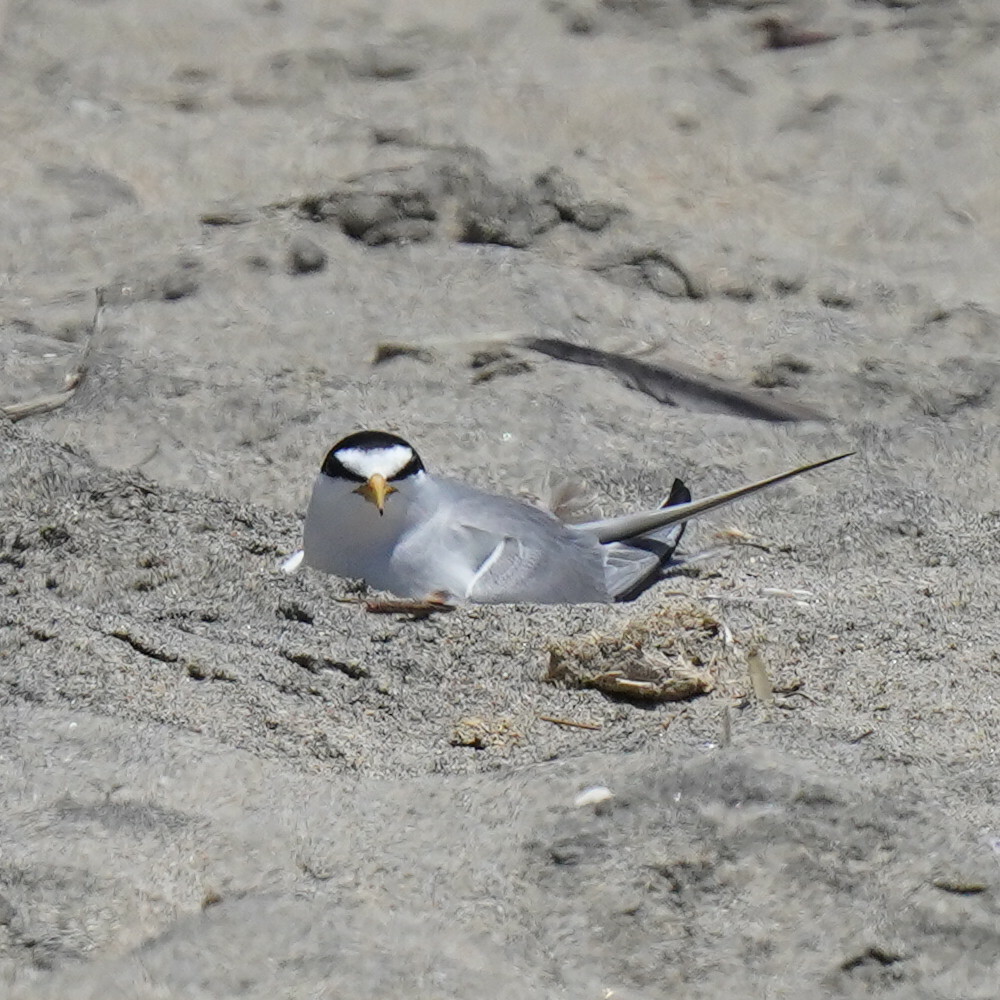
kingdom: Animalia
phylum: Chordata
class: Aves
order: Charadriiformes
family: Laridae
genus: Sternula
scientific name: Sternula antillarum
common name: Least tern
